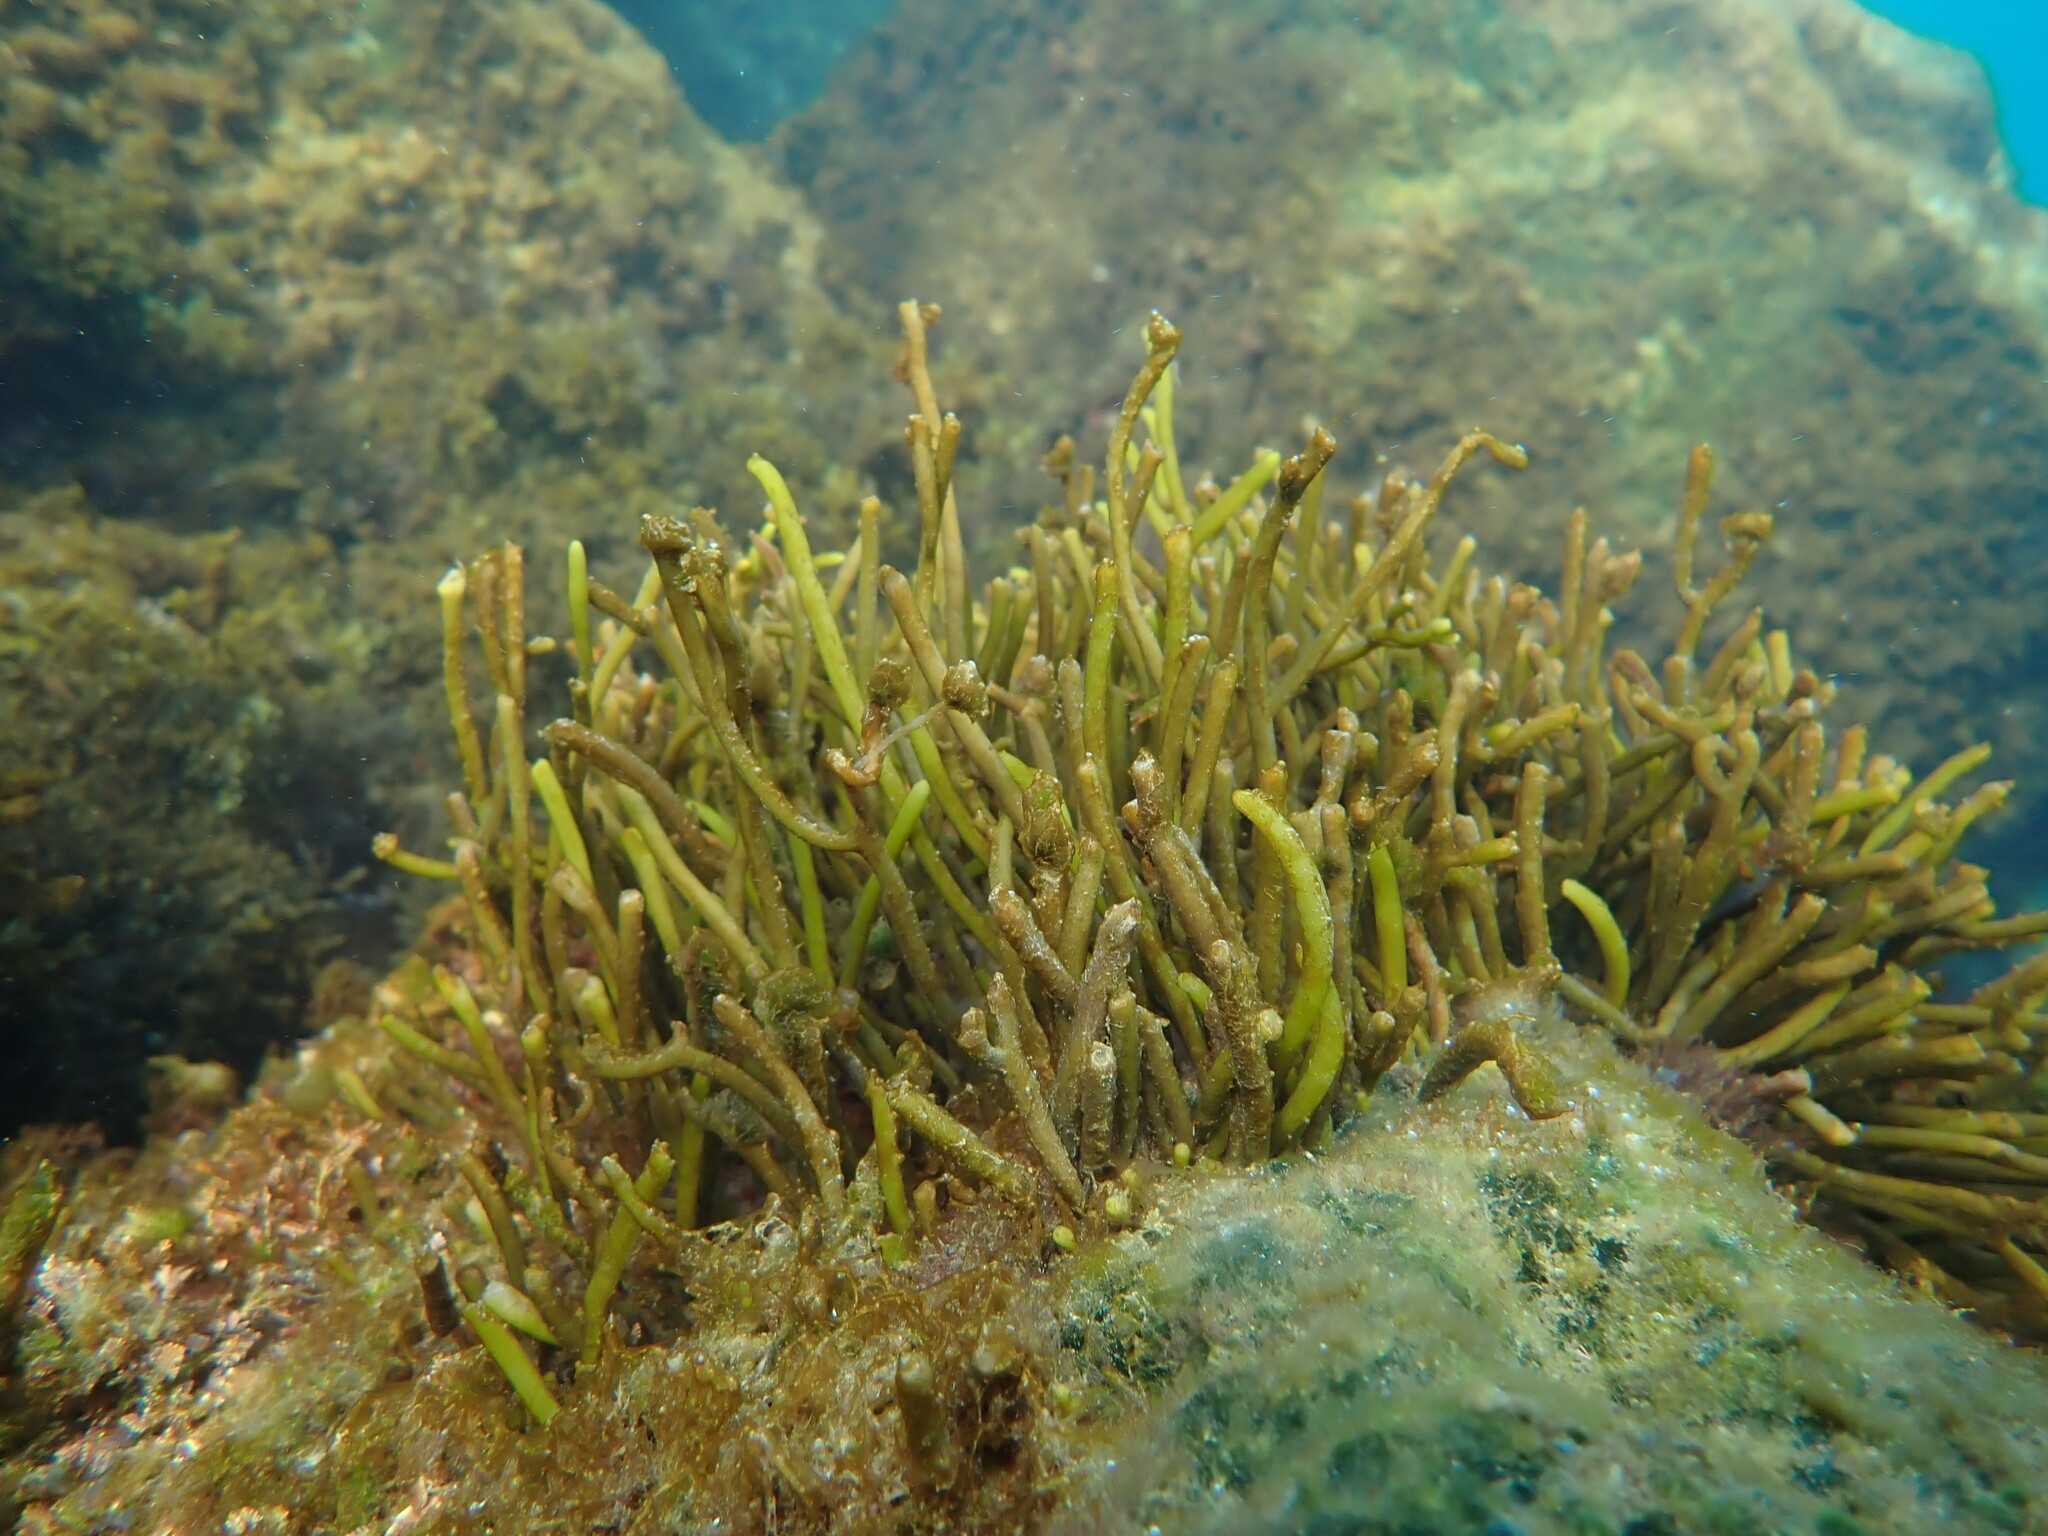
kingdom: Chromista
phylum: Ochrophyta
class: Phaeophyceae
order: Fucales
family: Sargassaceae
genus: Bifurcaria
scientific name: Bifurcaria bifurcata
